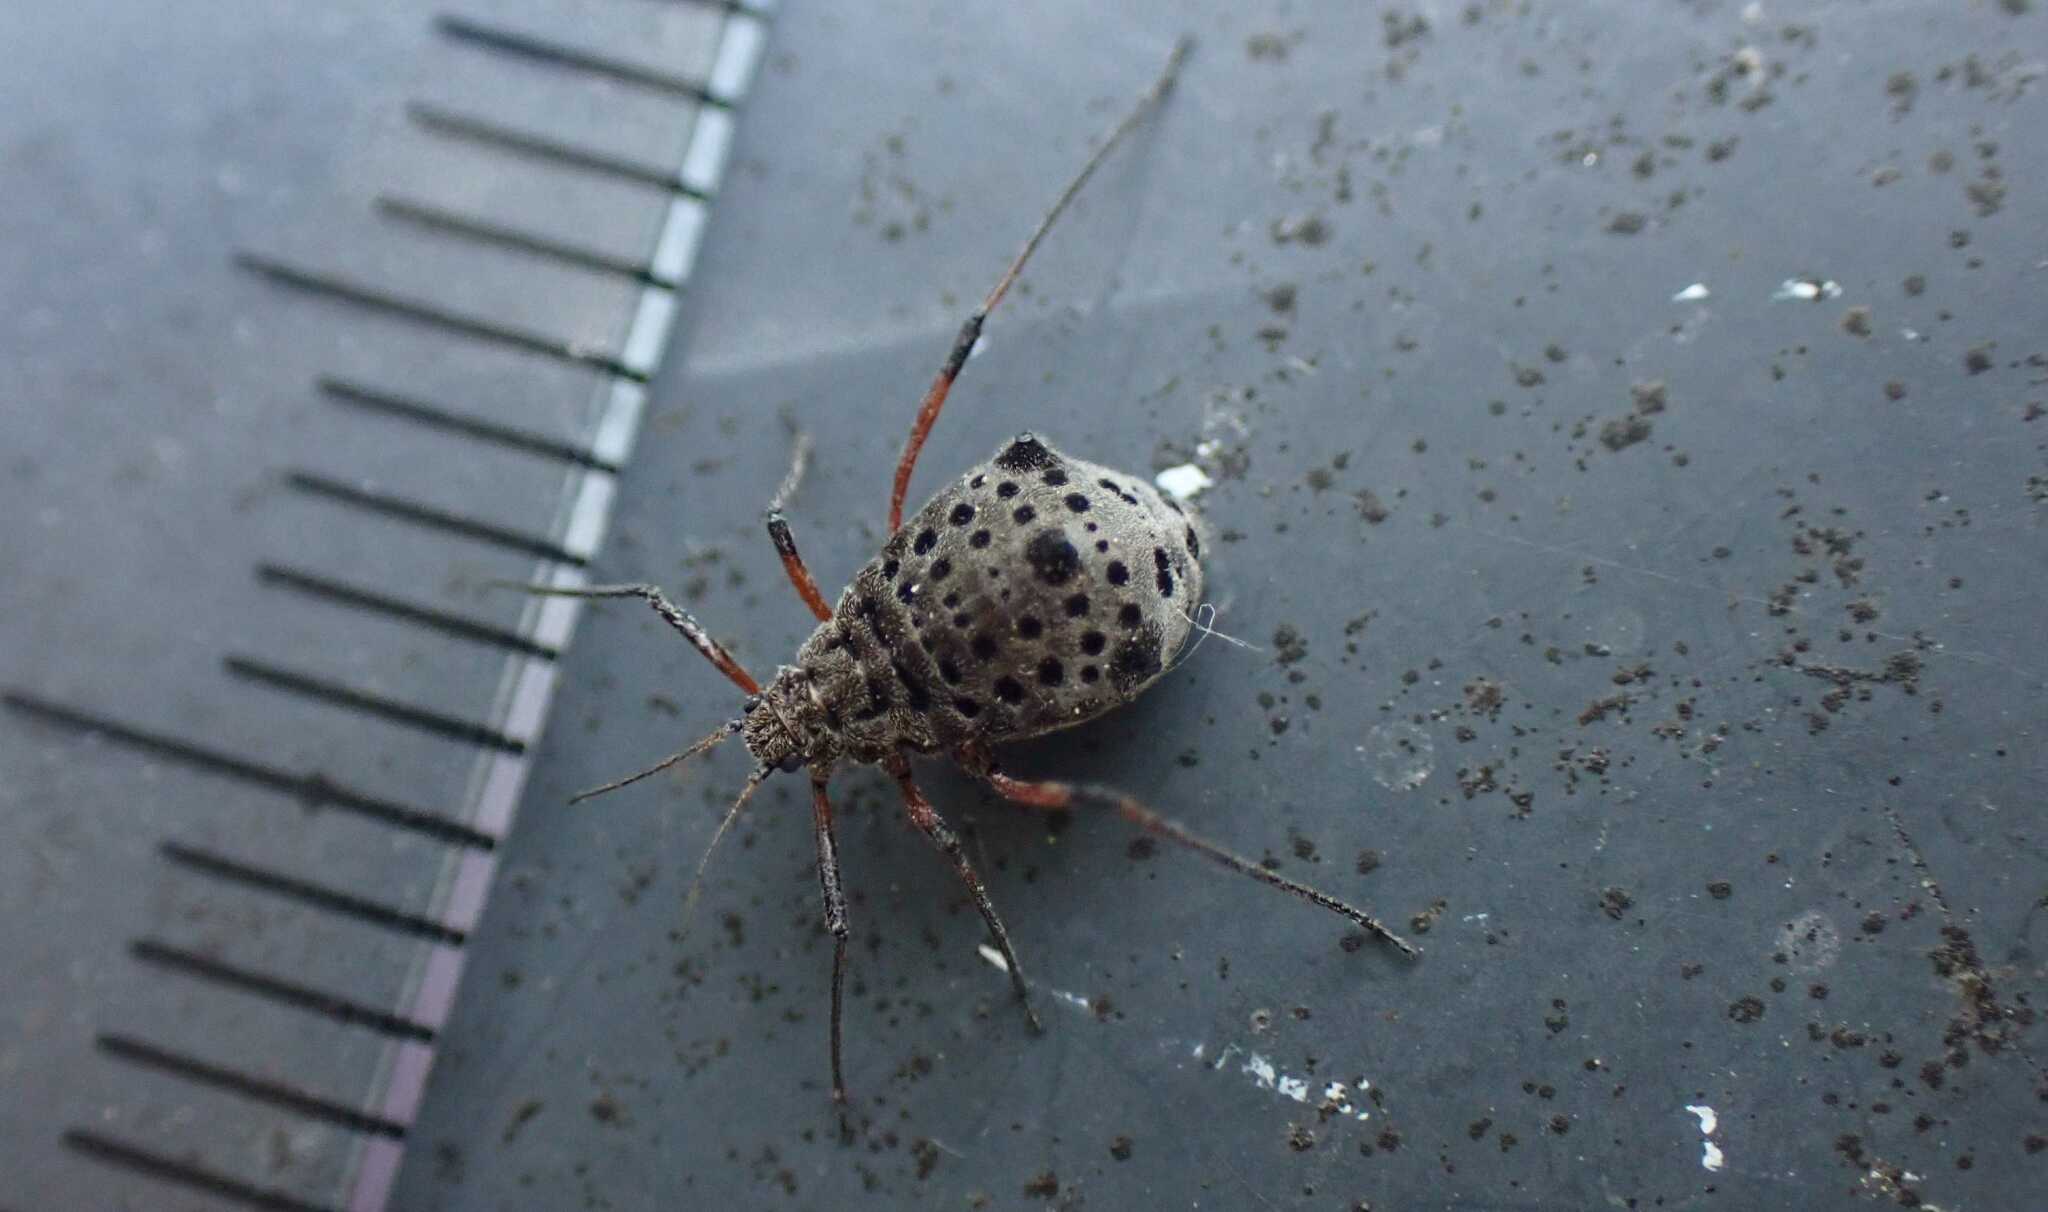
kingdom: Animalia
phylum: Arthropoda
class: Insecta
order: Hemiptera
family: Aphididae
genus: Tuberolachnus
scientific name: Tuberolachnus salignus
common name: Giant willow aphid
